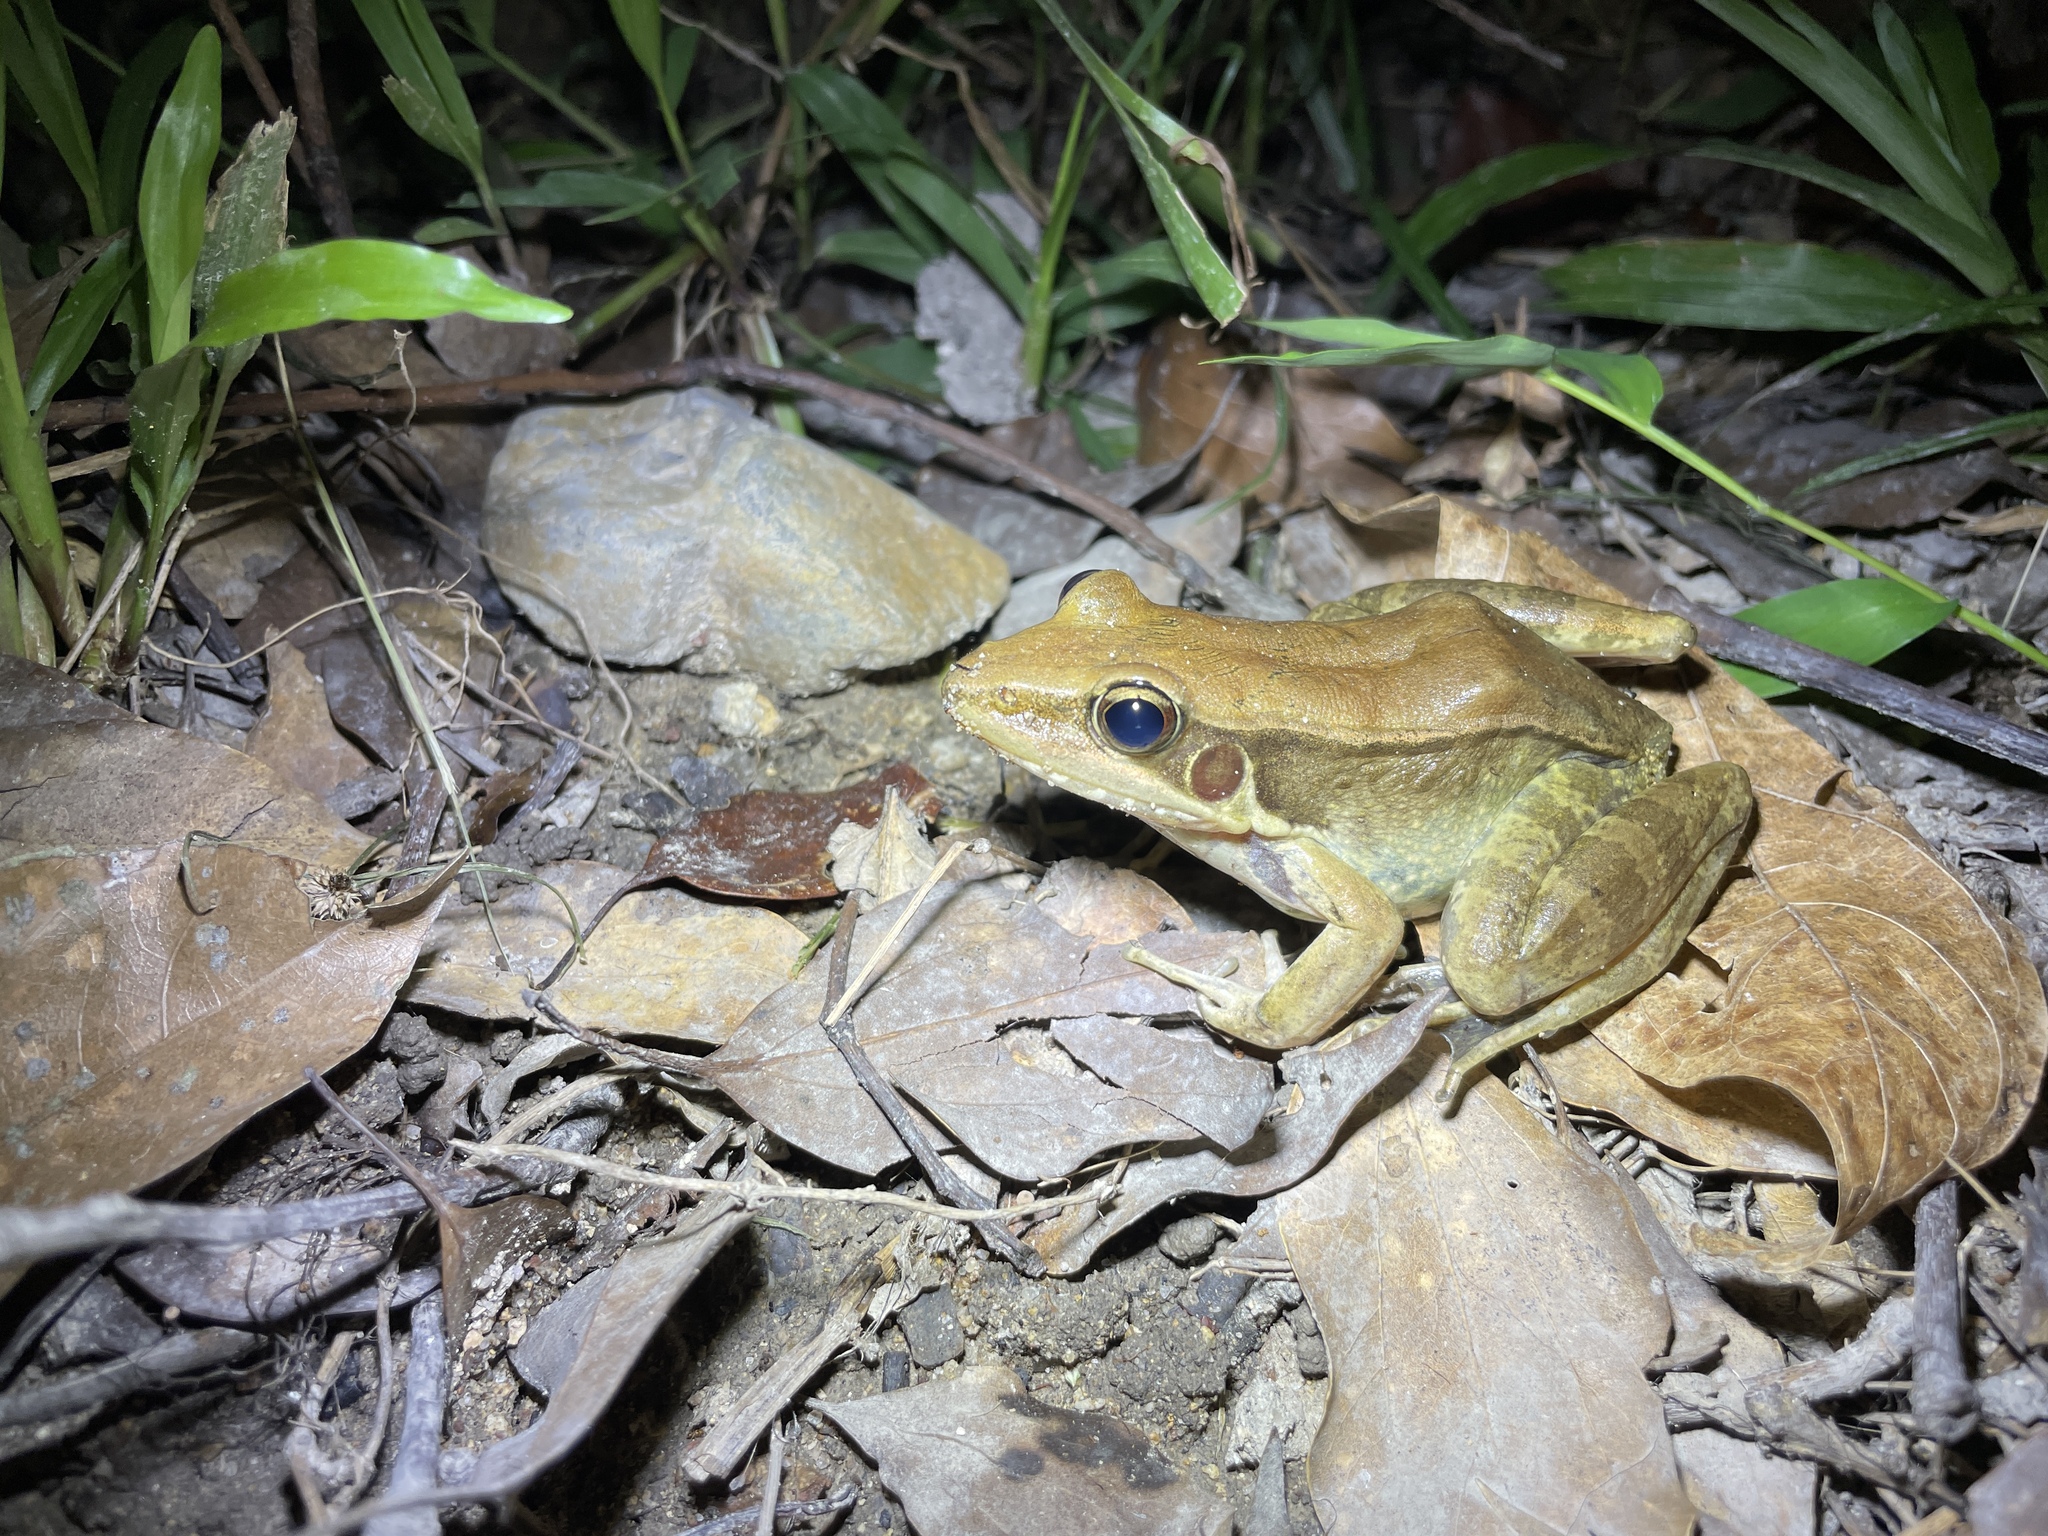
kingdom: Animalia
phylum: Chordata
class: Amphibia
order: Anura
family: Ranidae
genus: Sylvirana
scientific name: Sylvirana guentheri
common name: Guenther's amoy frog
